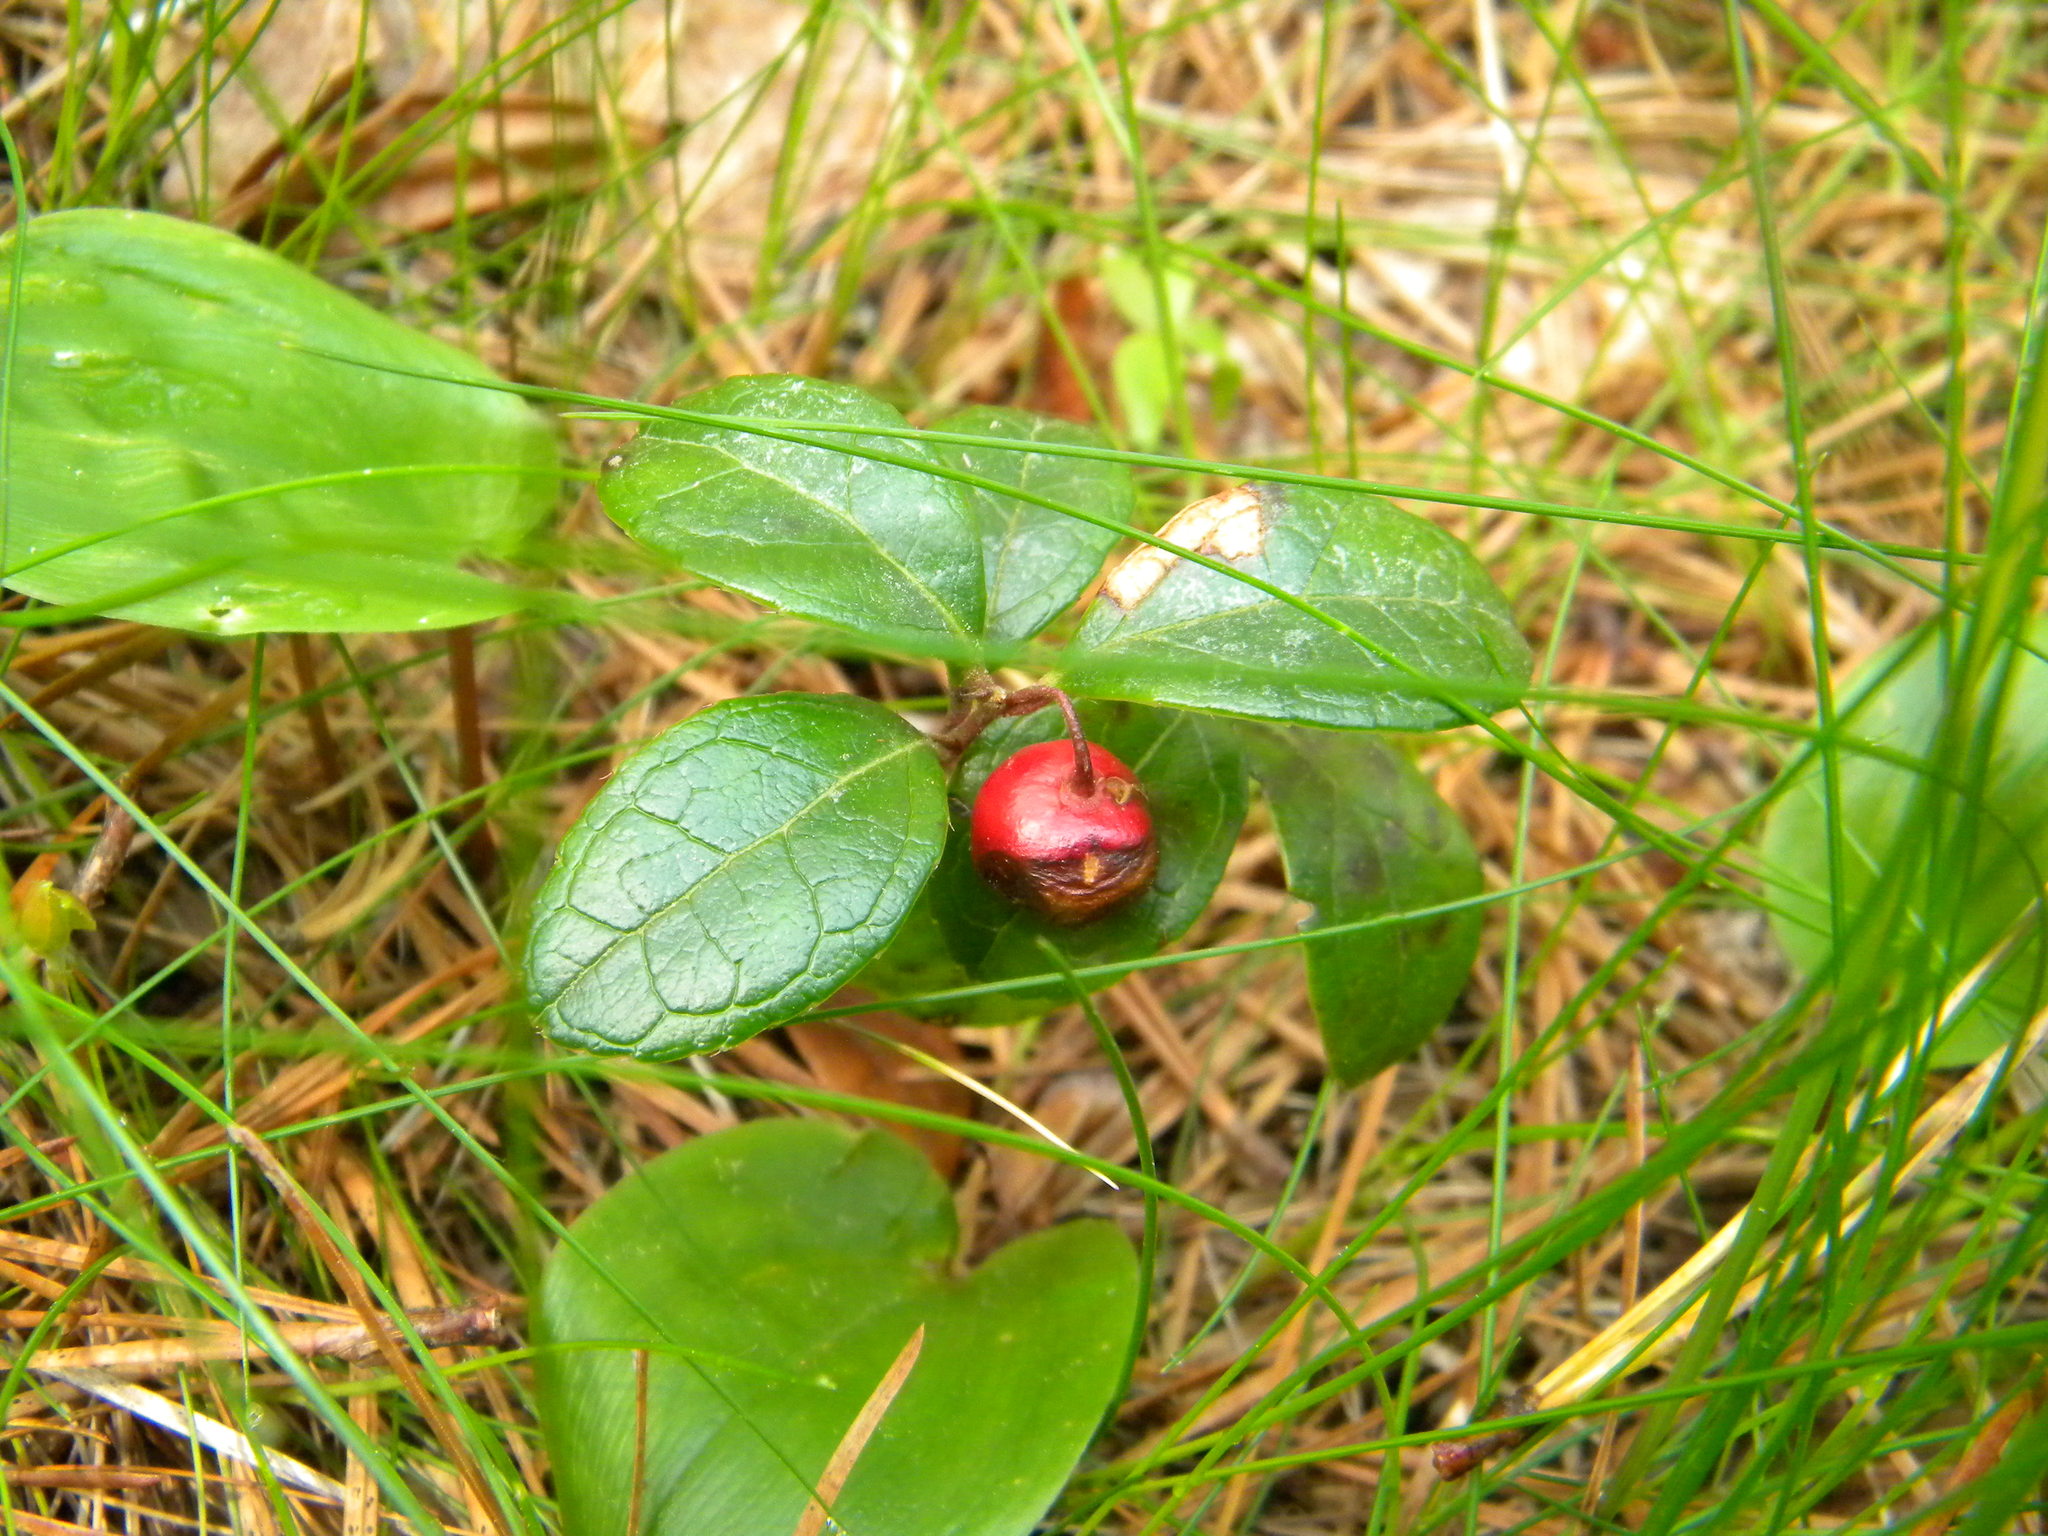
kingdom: Plantae
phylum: Tracheophyta
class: Magnoliopsida
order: Ericales
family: Ericaceae
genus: Gaultheria
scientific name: Gaultheria procumbens
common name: Checkerberry
